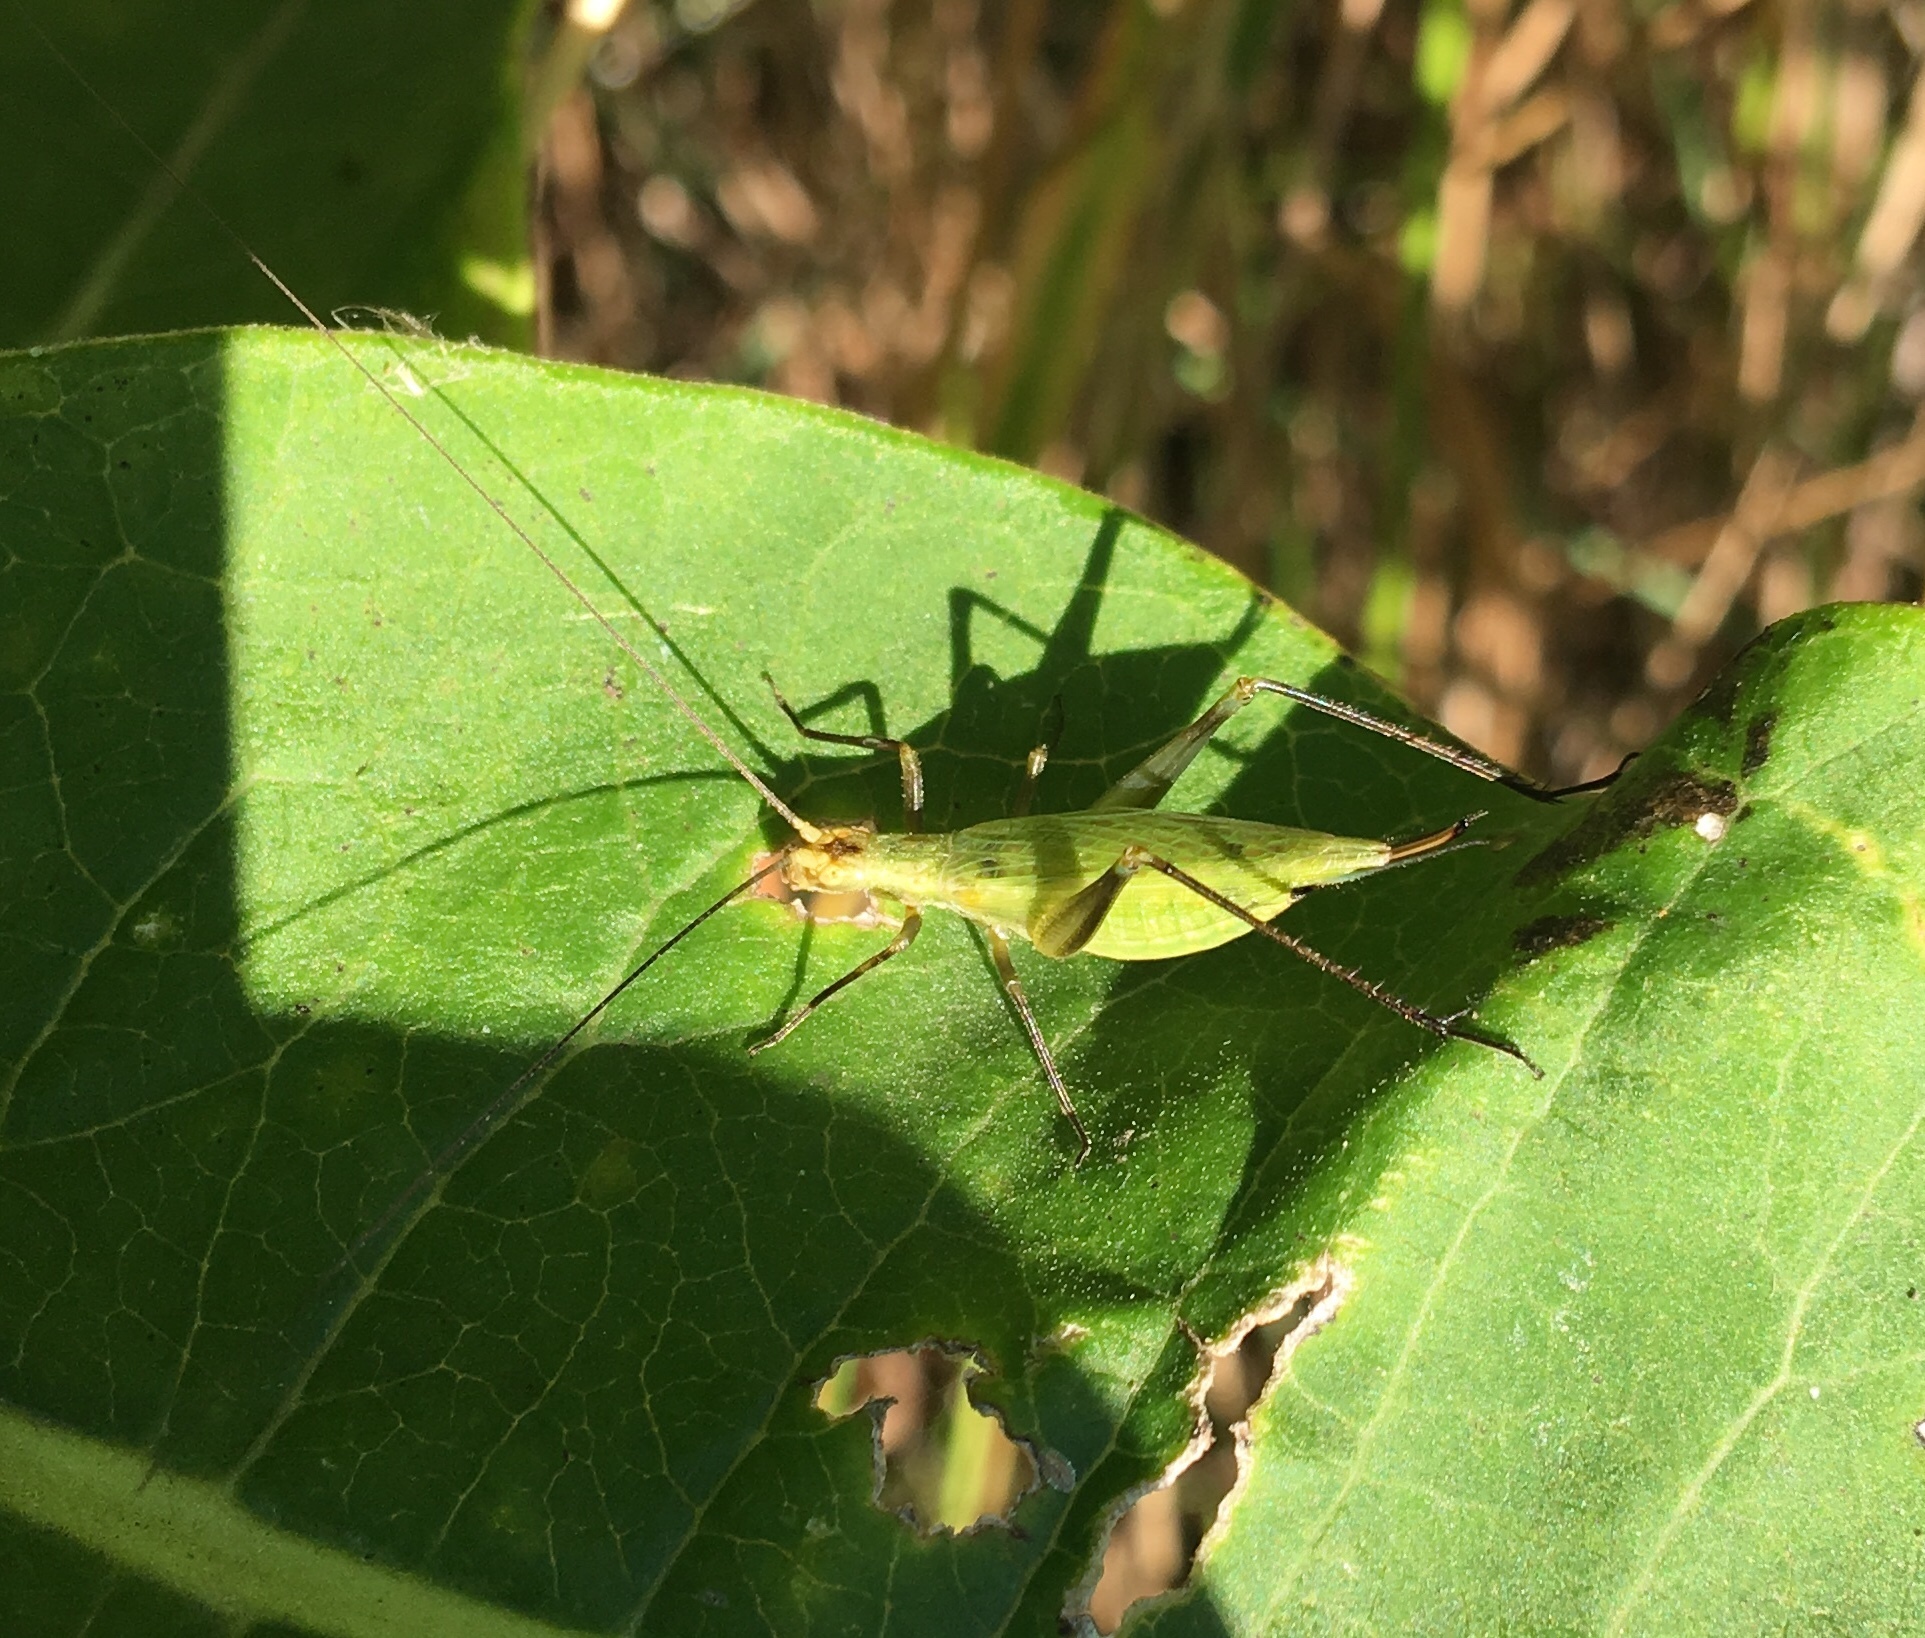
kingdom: Animalia
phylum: Arthropoda
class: Insecta
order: Orthoptera
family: Gryllidae
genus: Oecanthus
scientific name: Oecanthus forbesi
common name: Forbes’s tree cricket
